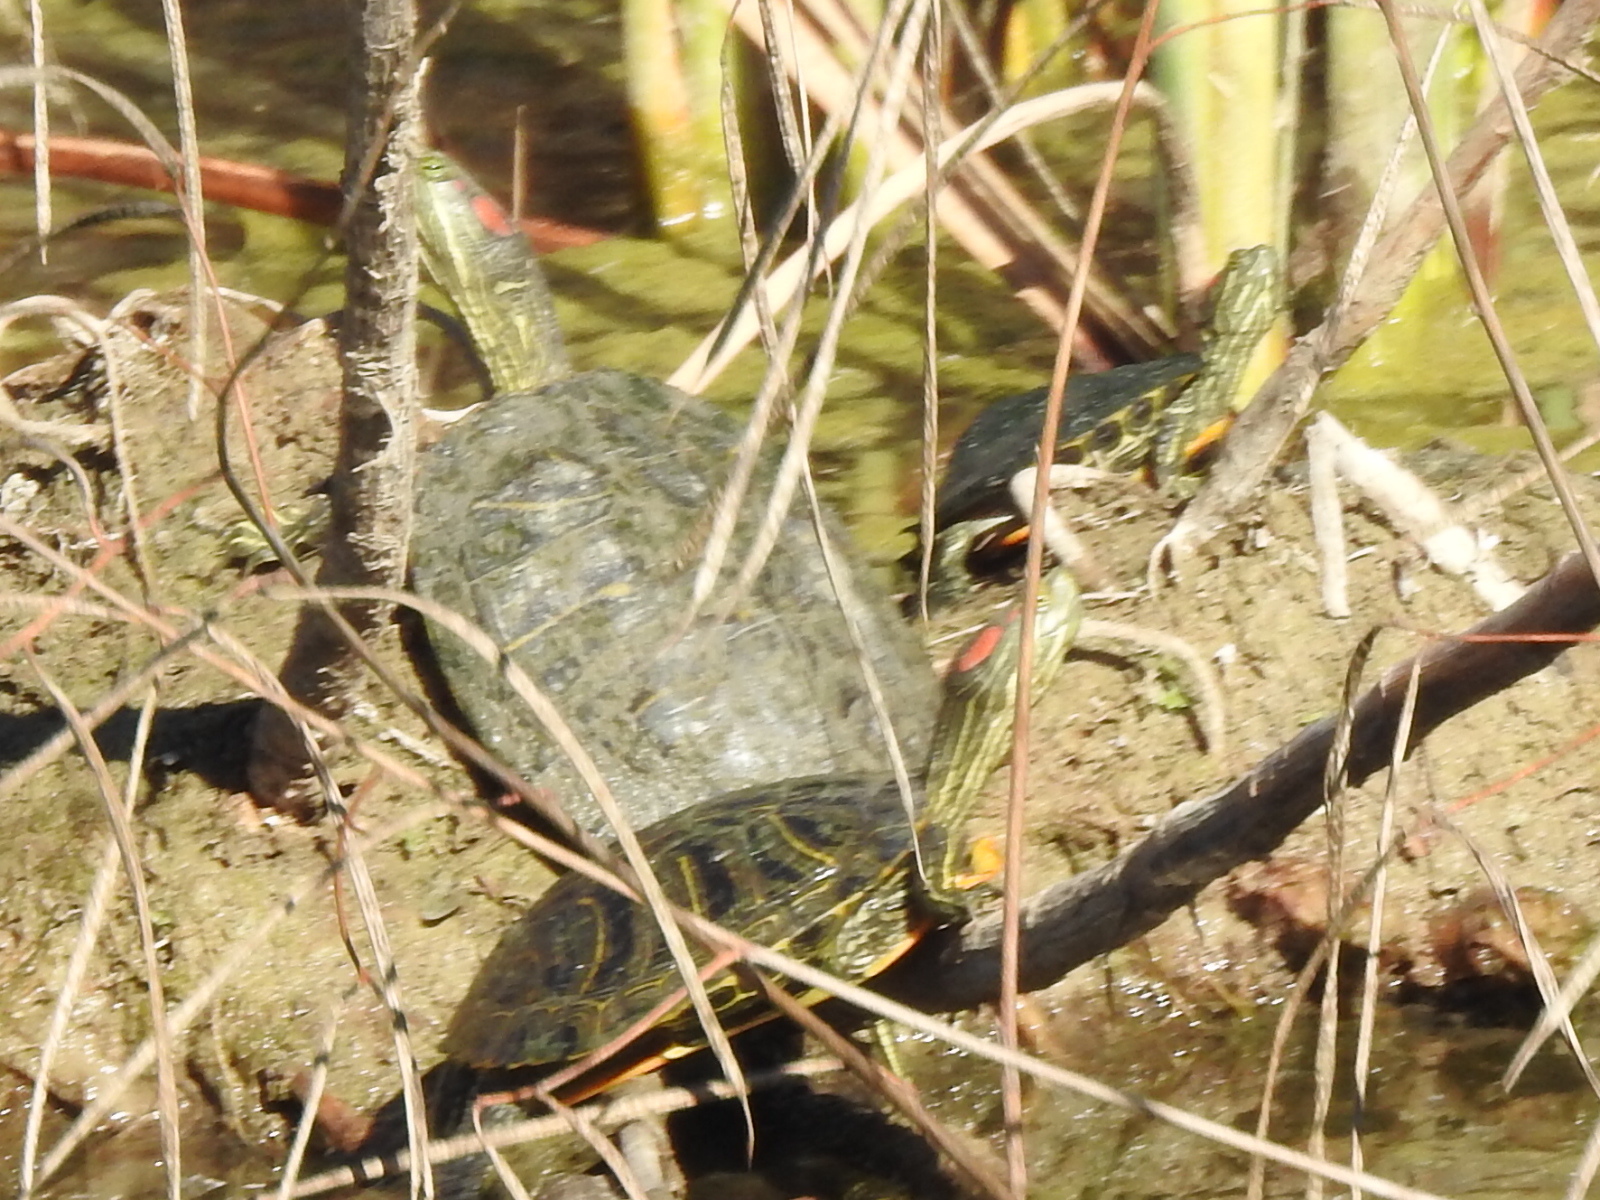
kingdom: Animalia
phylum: Chordata
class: Testudines
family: Emydidae
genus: Trachemys
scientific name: Trachemys scripta
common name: Slider
